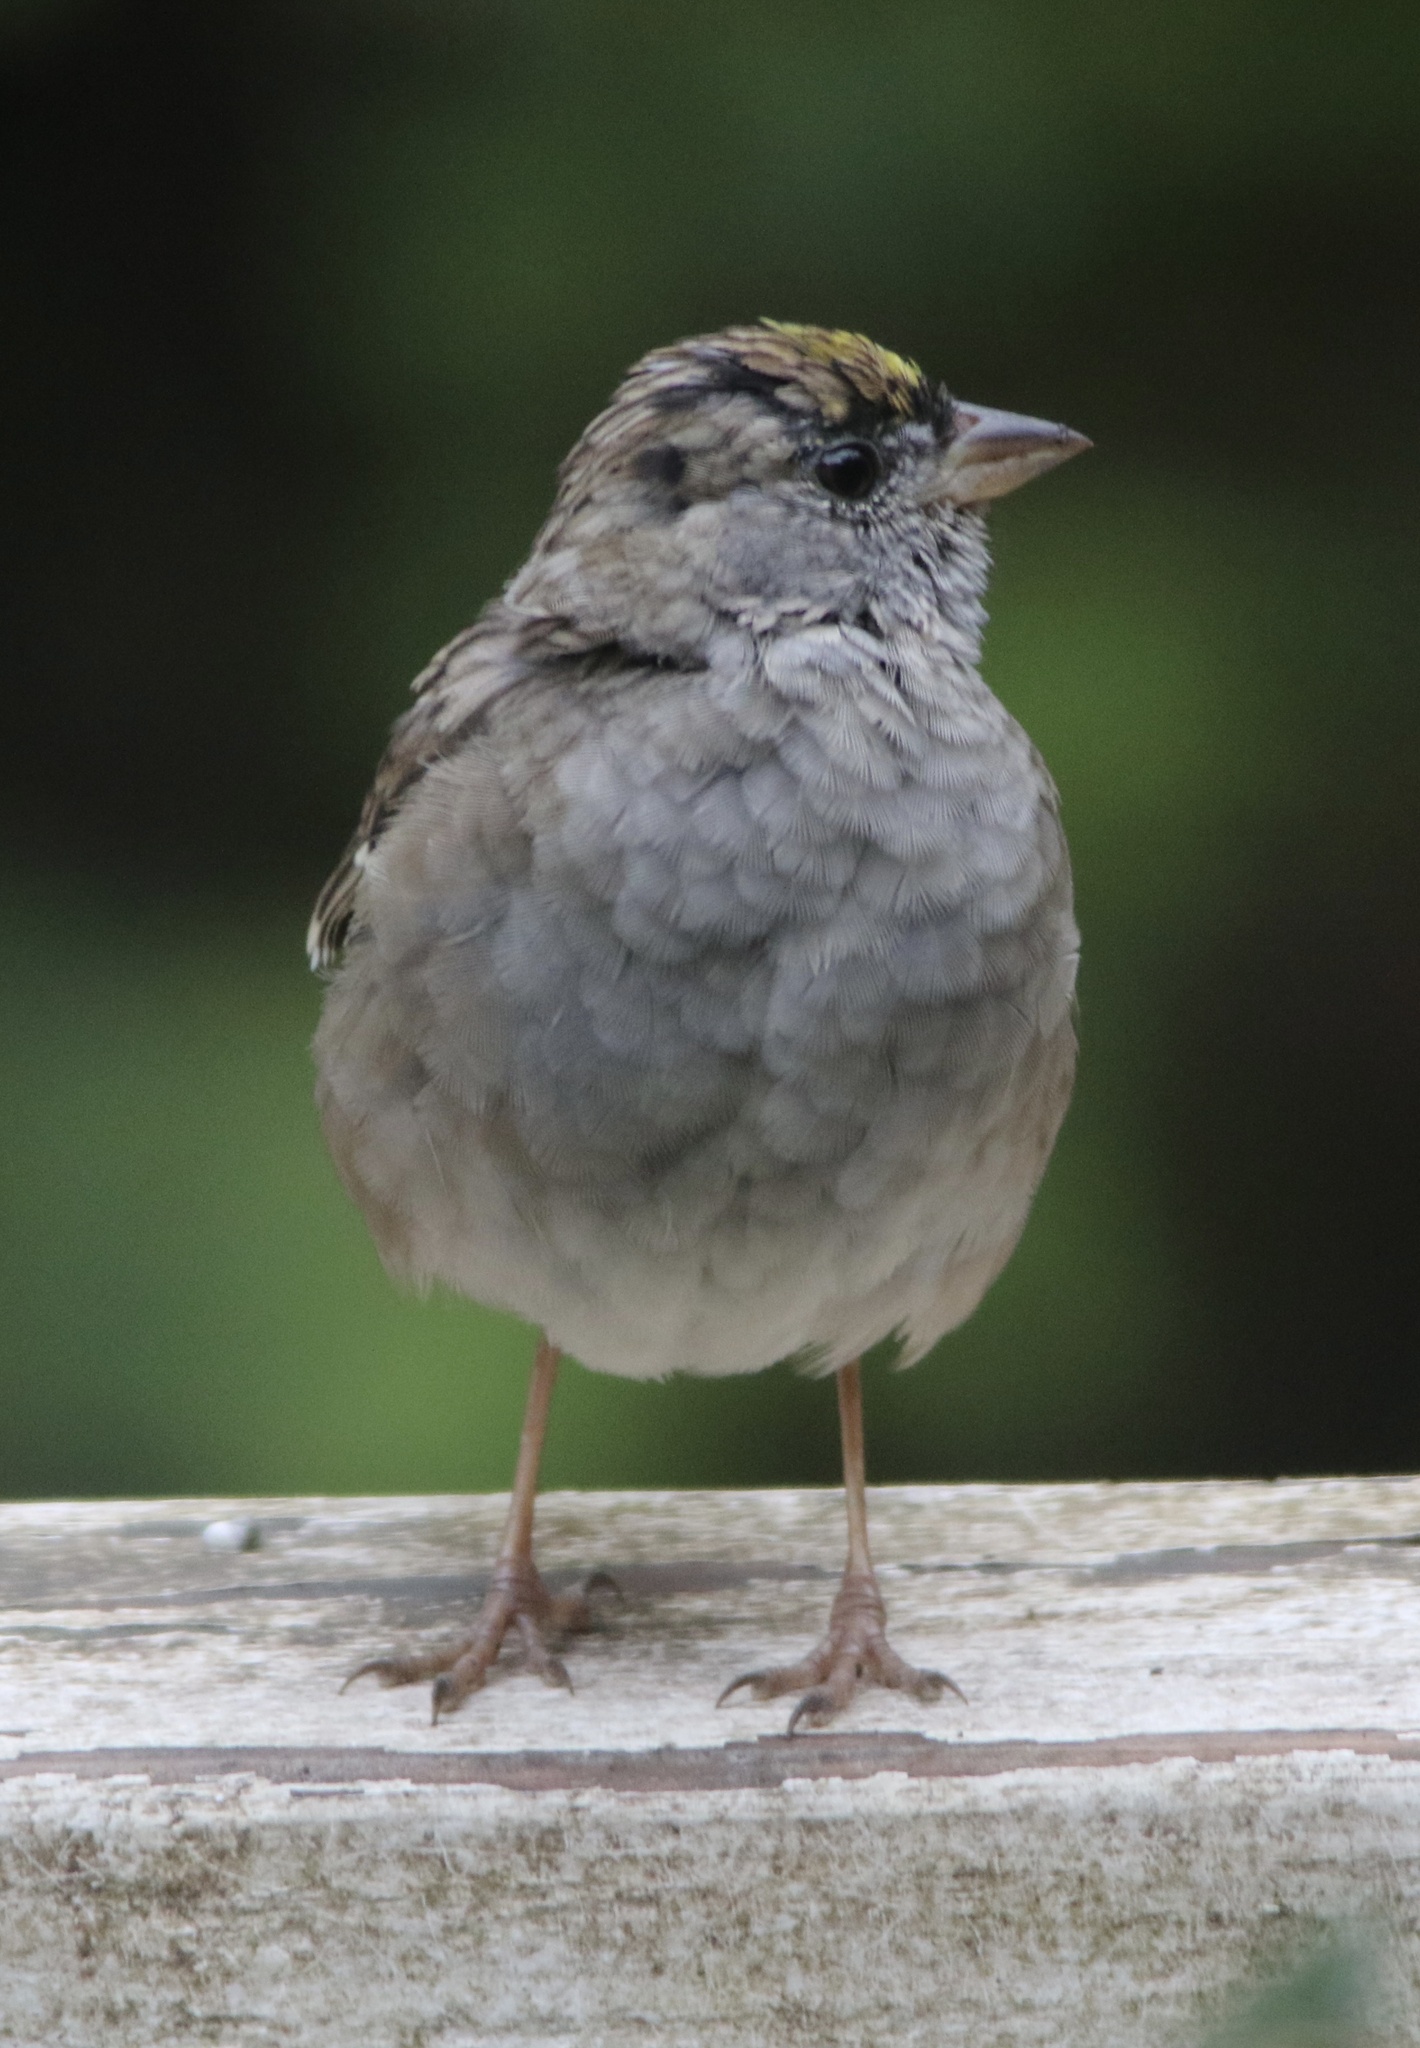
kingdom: Animalia
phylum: Chordata
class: Aves
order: Passeriformes
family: Passerellidae
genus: Zonotrichia
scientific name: Zonotrichia atricapilla
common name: Golden-crowned sparrow
